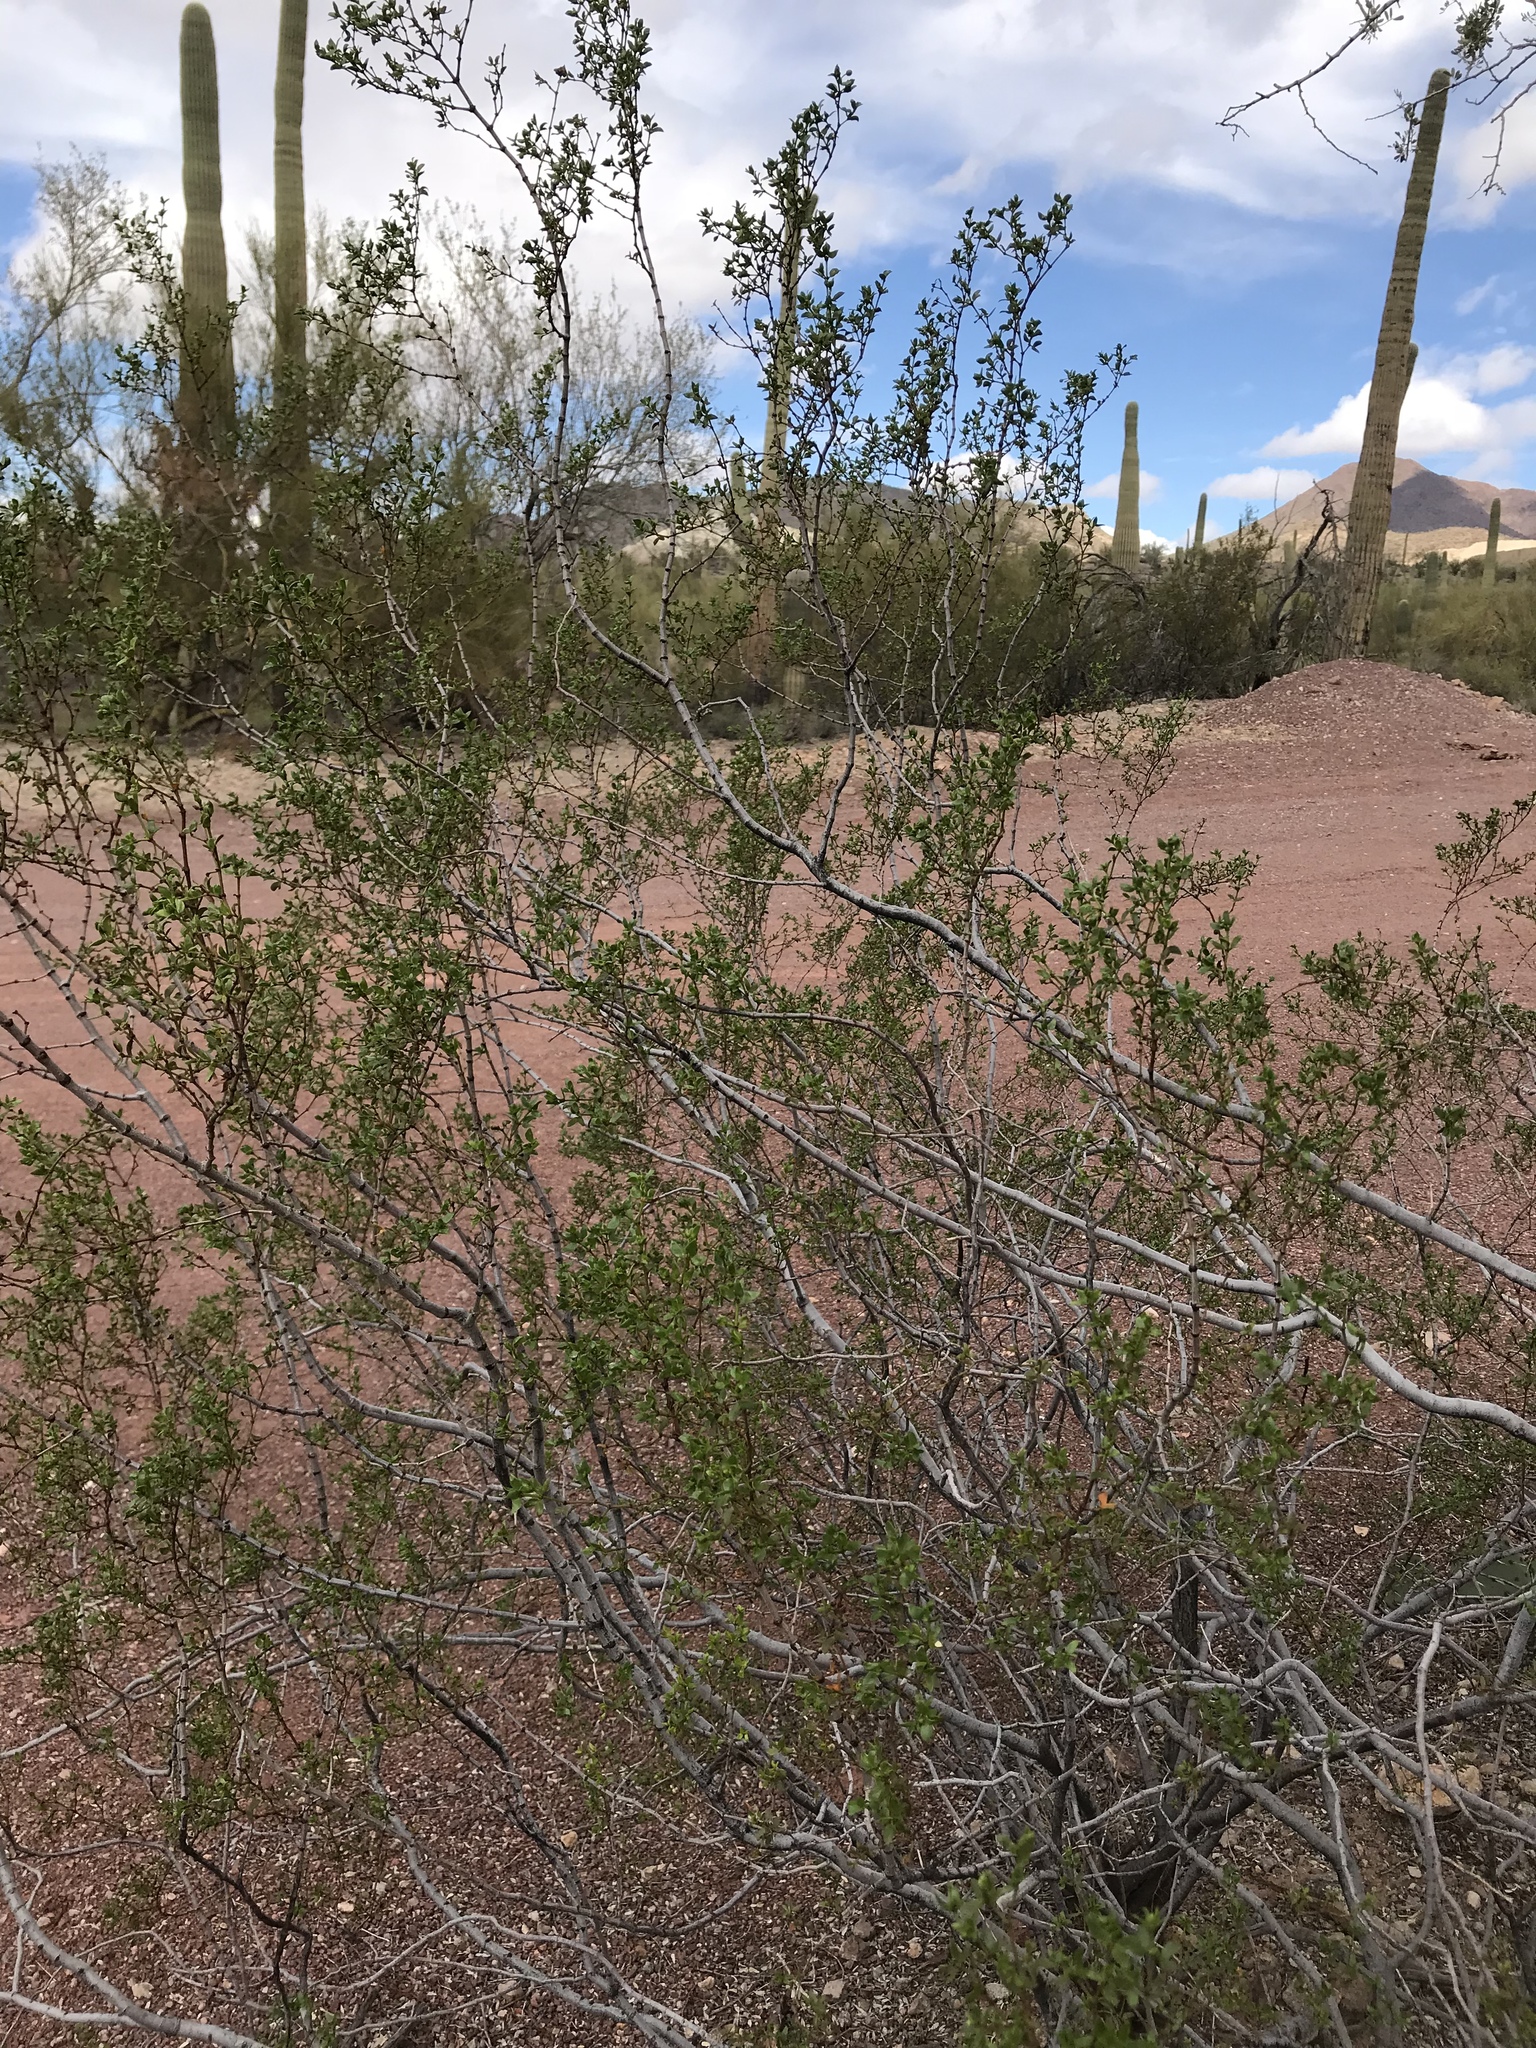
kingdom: Plantae
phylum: Tracheophyta
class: Magnoliopsida
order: Zygophyllales
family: Zygophyllaceae
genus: Larrea
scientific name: Larrea tridentata
